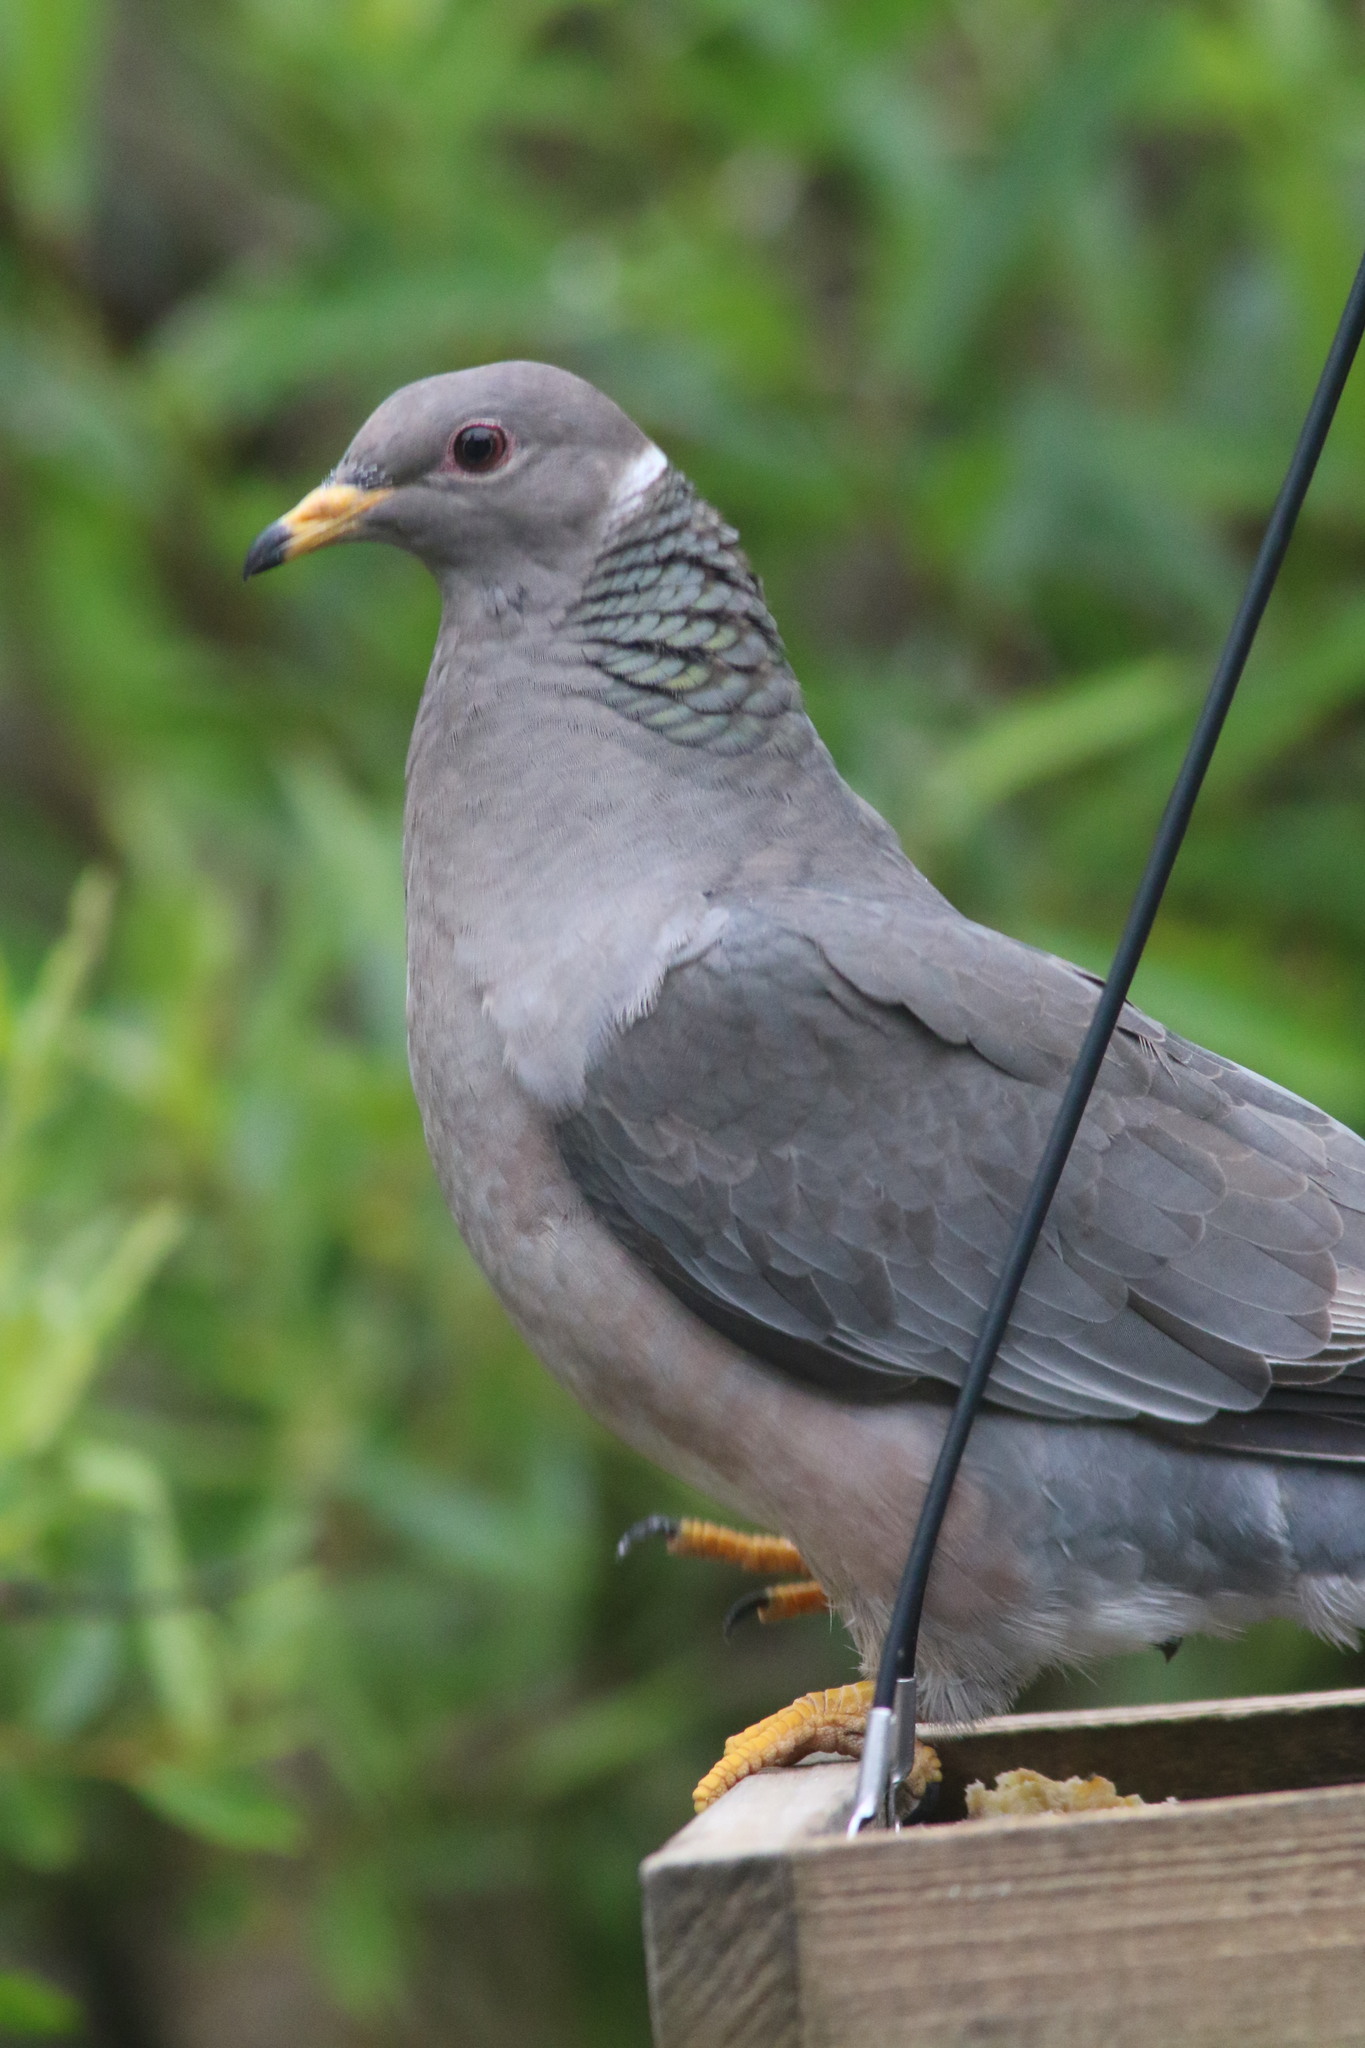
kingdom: Animalia
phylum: Chordata
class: Aves
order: Columbiformes
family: Columbidae
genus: Patagioenas
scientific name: Patagioenas fasciata
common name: Band-tailed pigeon
